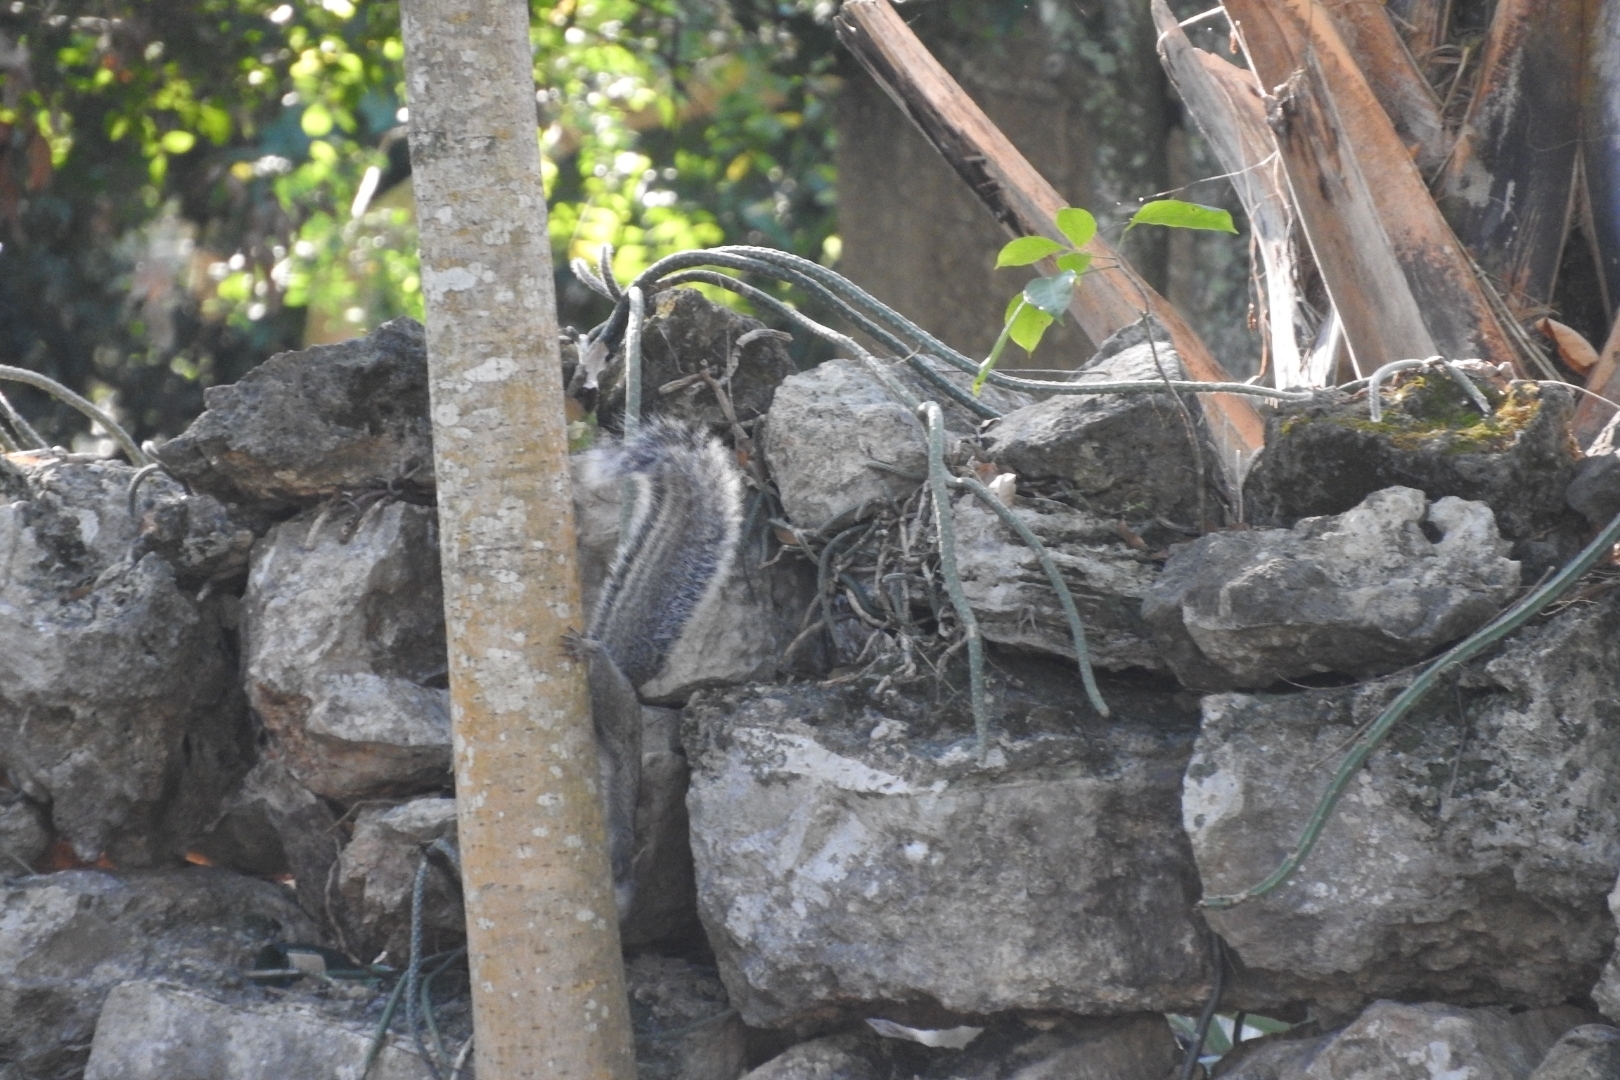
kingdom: Animalia
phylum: Chordata
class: Mammalia
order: Rodentia
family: Sciuridae
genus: Sciurus
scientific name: Sciurus yucatanensis
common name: Yucatan squirrel
